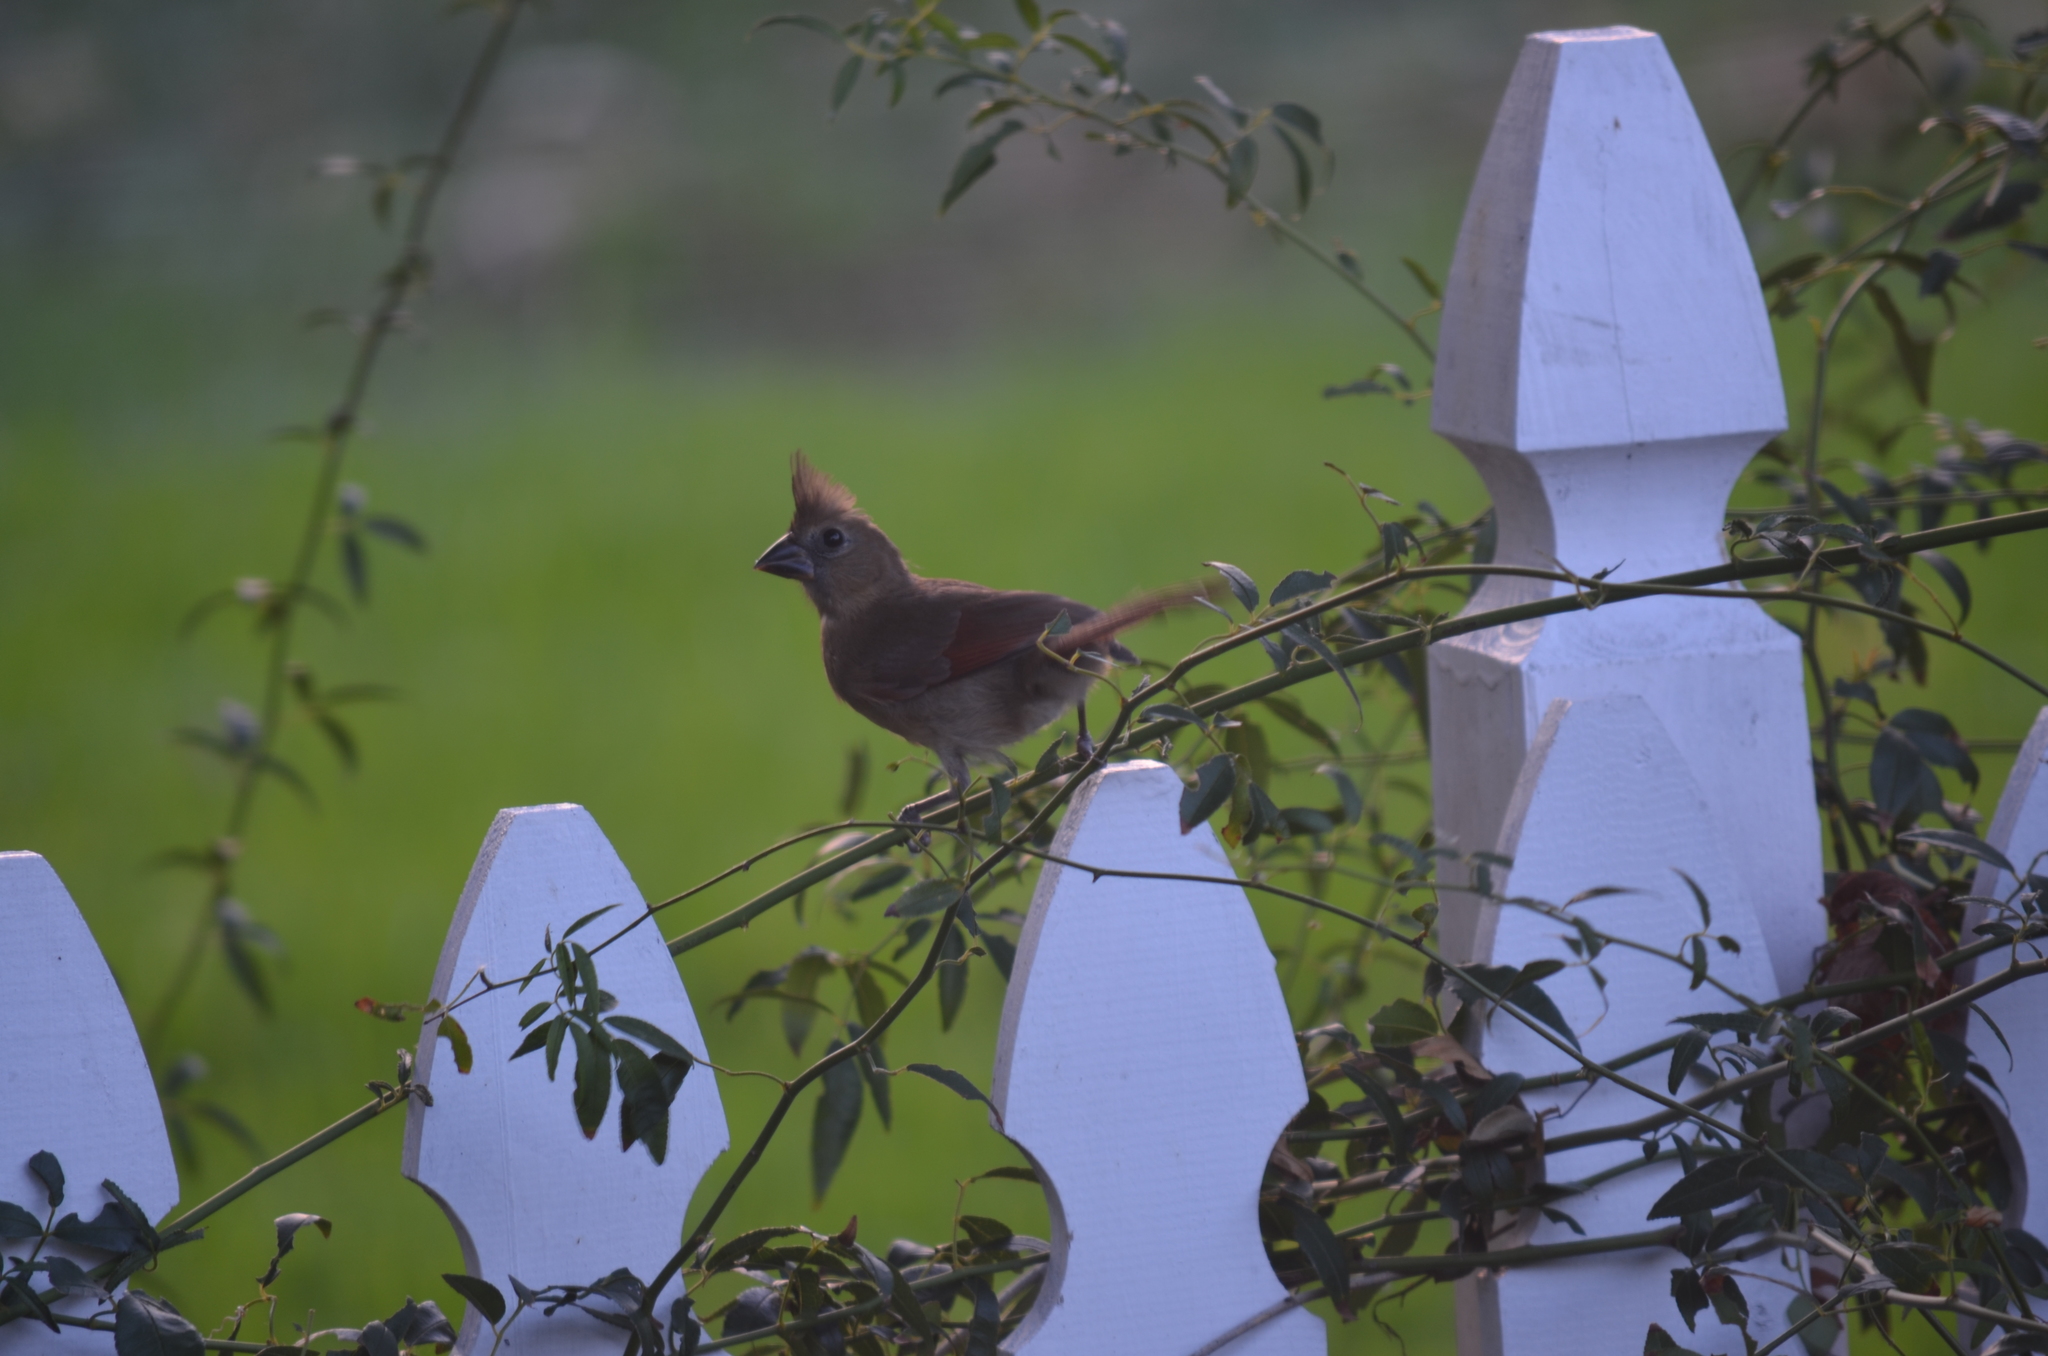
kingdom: Animalia
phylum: Chordata
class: Aves
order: Passeriformes
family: Cardinalidae
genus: Cardinalis
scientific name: Cardinalis cardinalis
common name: Northern cardinal
